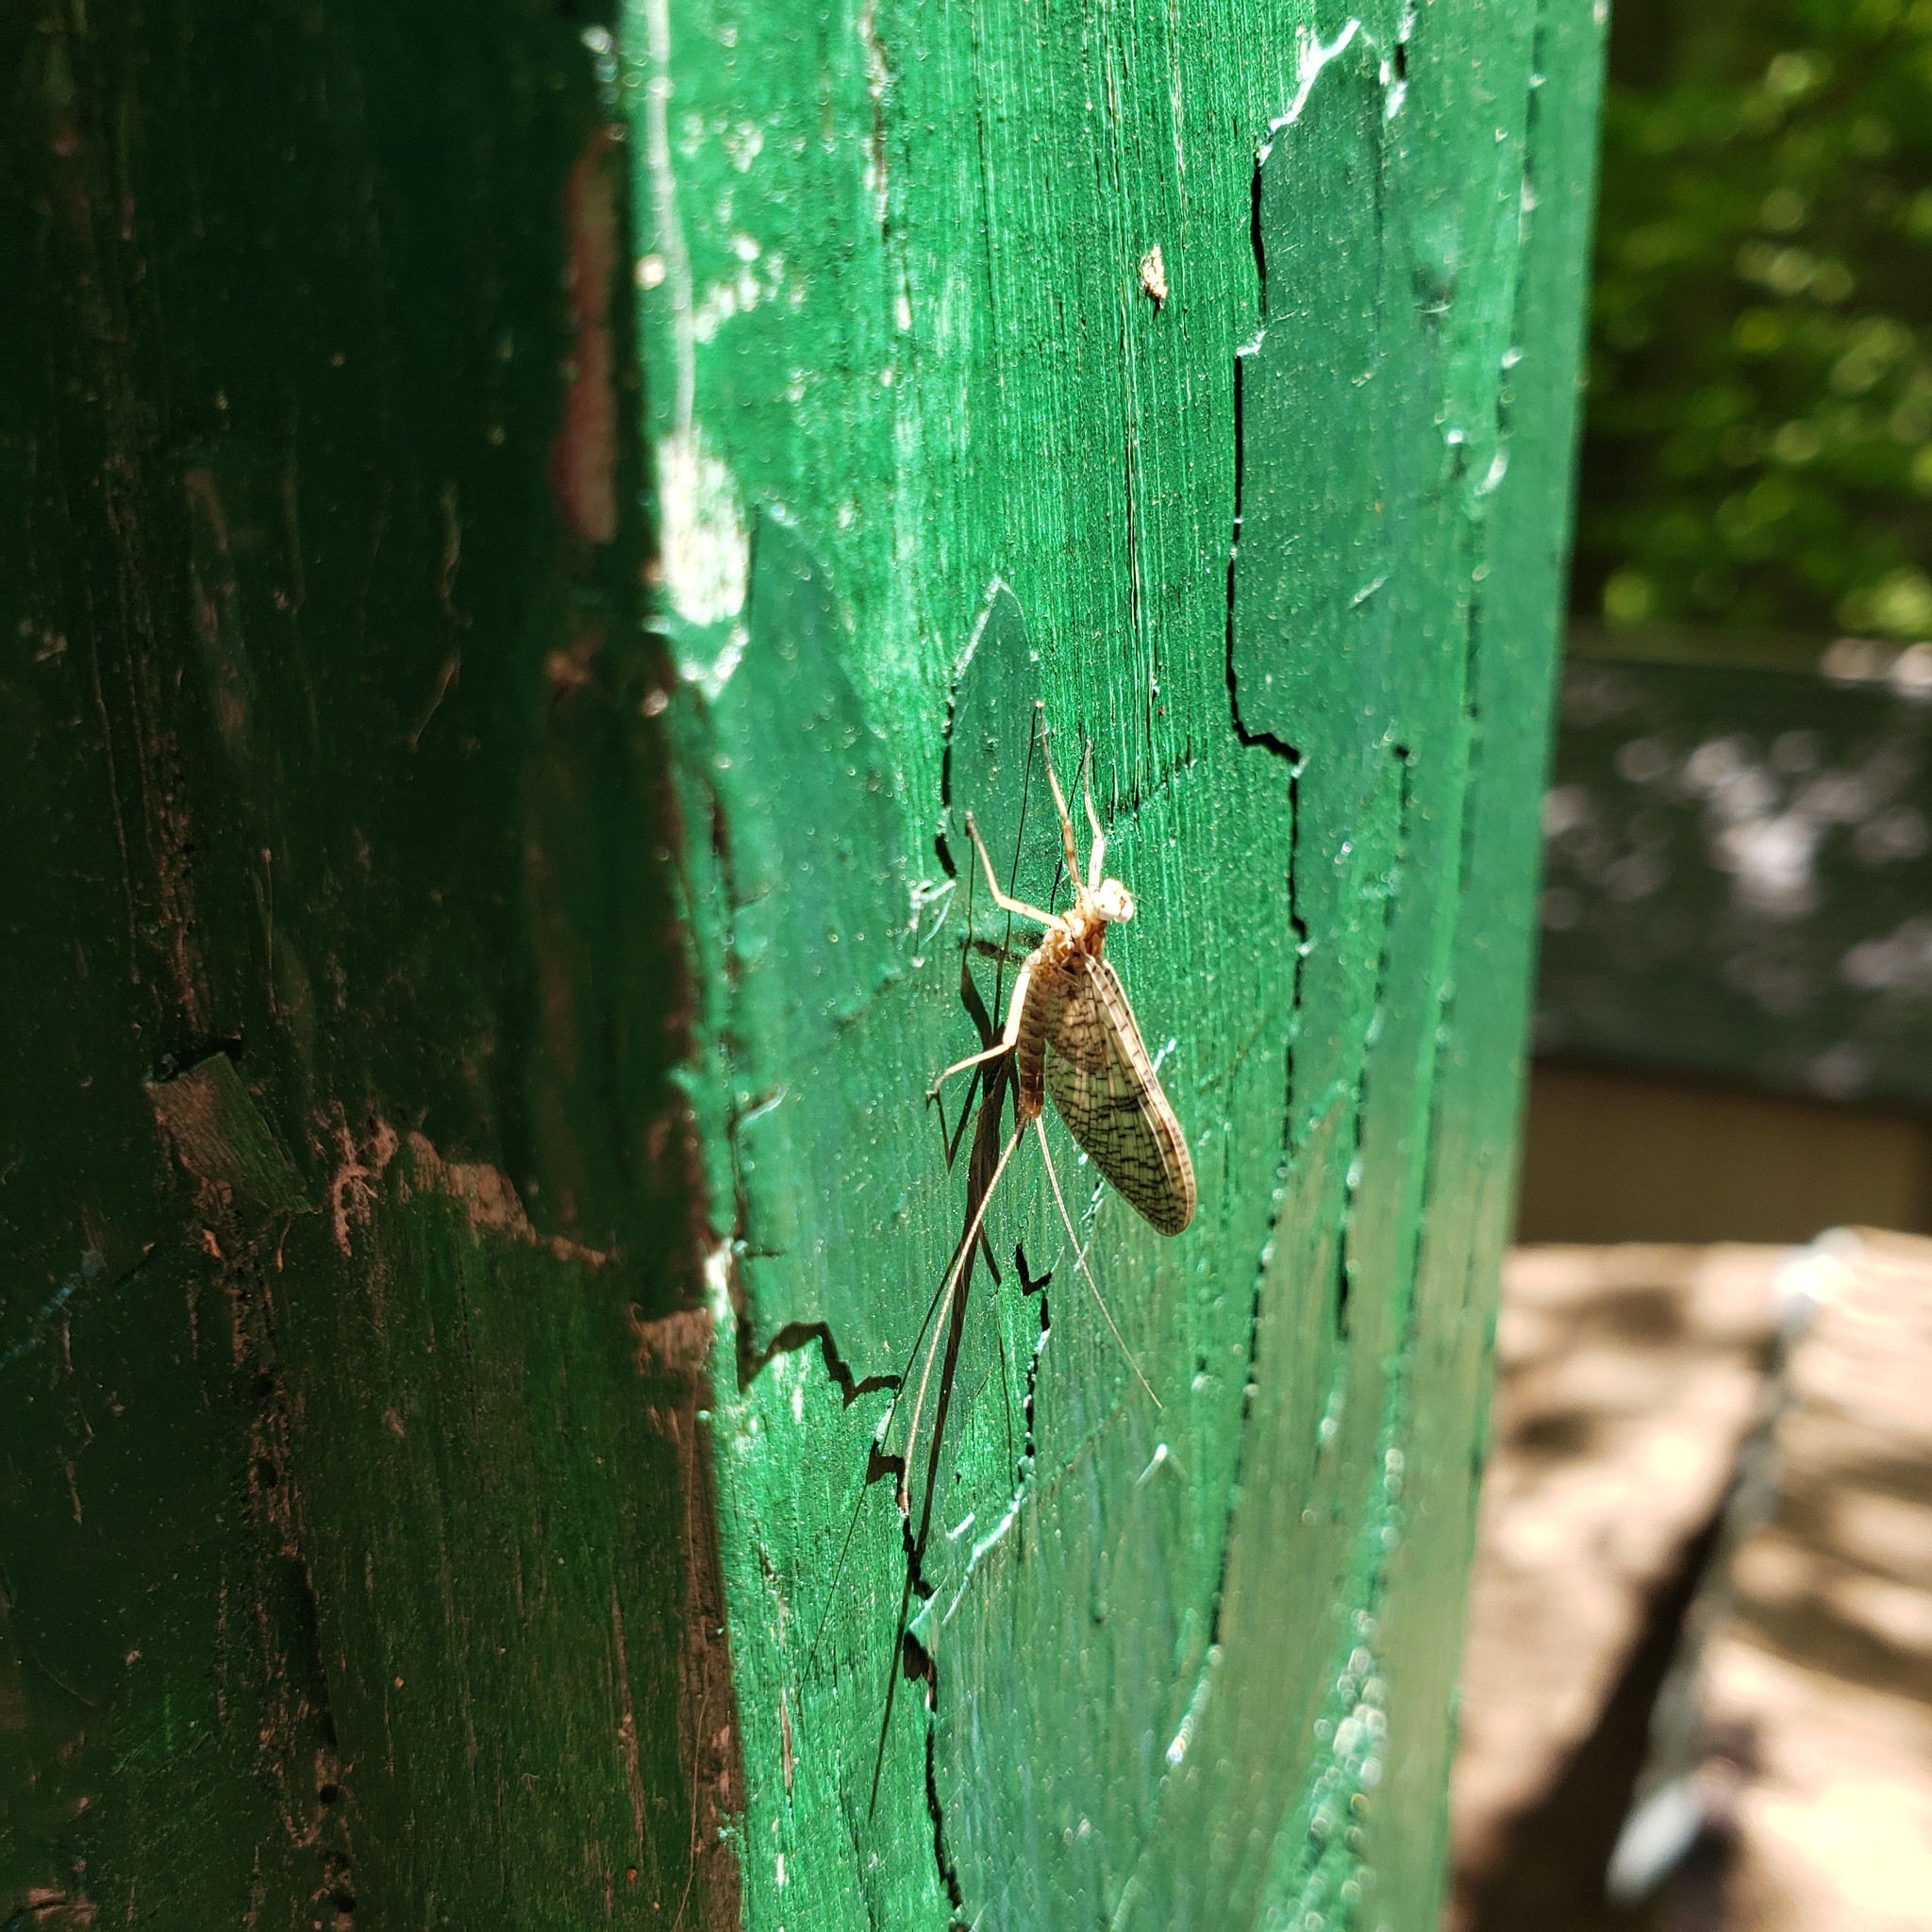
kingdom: Animalia
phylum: Arthropoda
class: Insecta
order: Ephemeroptera
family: Heptageniidae
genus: Stenonema
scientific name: Stenonema femoratum
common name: Dark cahill
